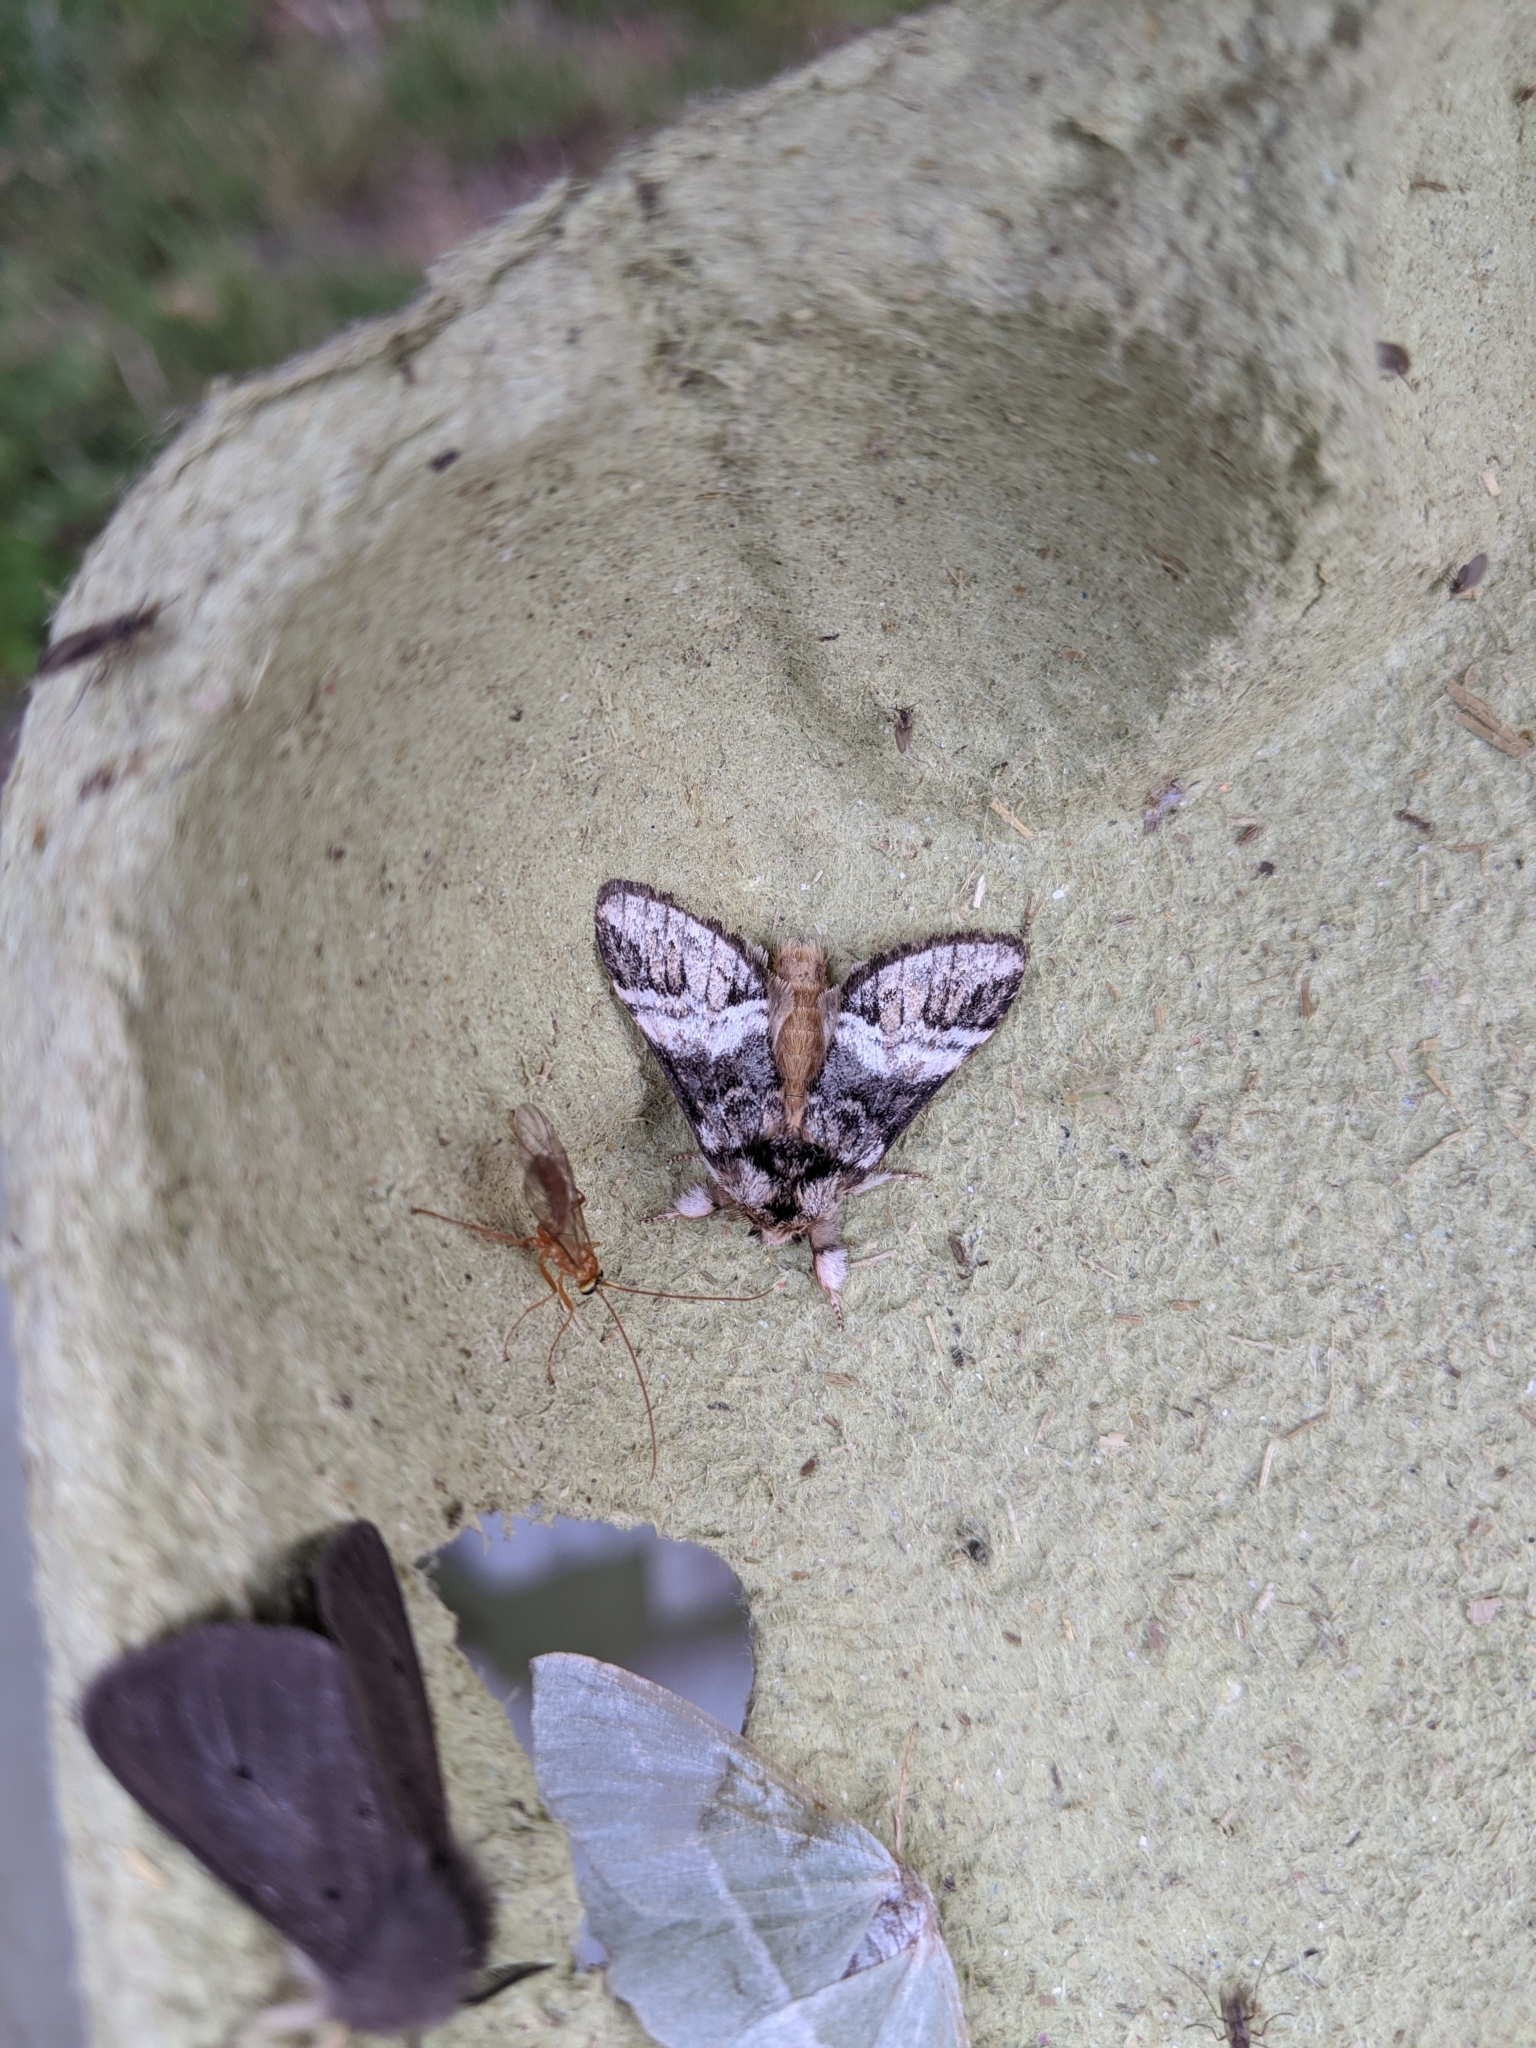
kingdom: Animalia
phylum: Arthropoda
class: Insecta
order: Lepidoptera
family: Notodontidae
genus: Drymonia
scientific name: Drymonia dodonaea
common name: Marbled brown
